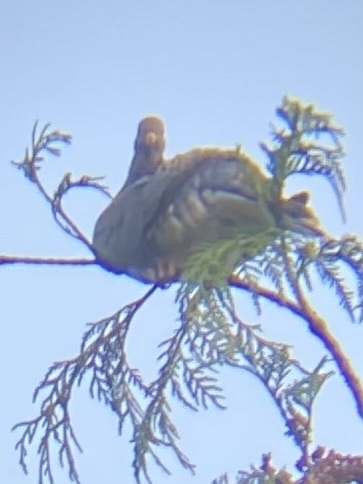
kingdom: Animalia
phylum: Chordata
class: Aves
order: Columbiformes
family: Columbidae
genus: Patagioenas
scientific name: Patagioenas fasciata
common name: Band-tailed pigeon
